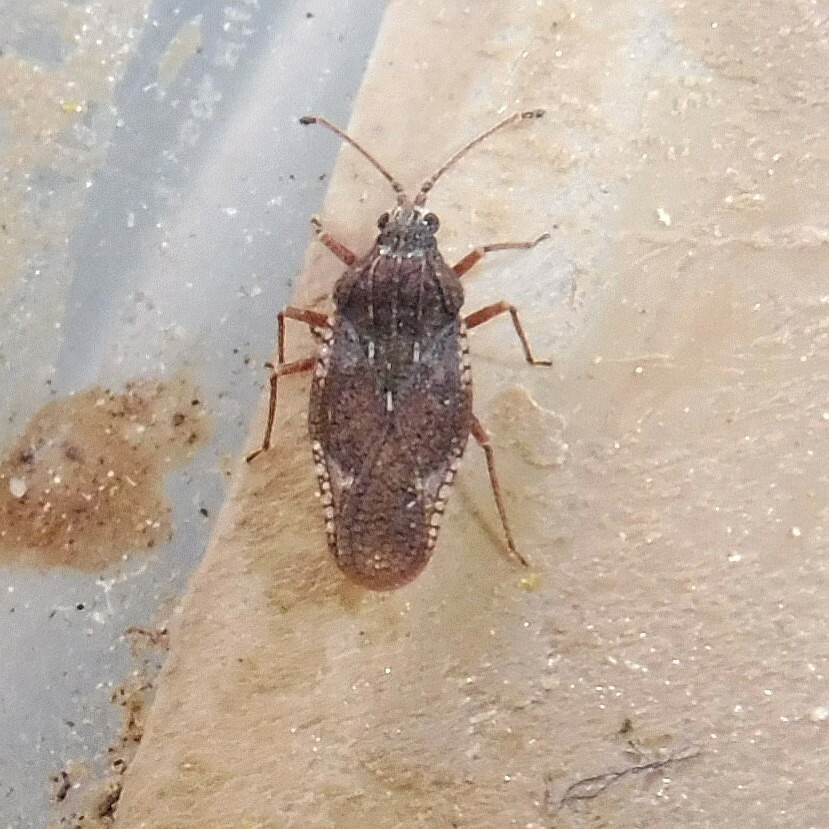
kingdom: Animalia
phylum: Arthropoda
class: Insecta
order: Hemiptera
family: Tingidae
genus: Physatocheila
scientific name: Physatocheila dumetorum
